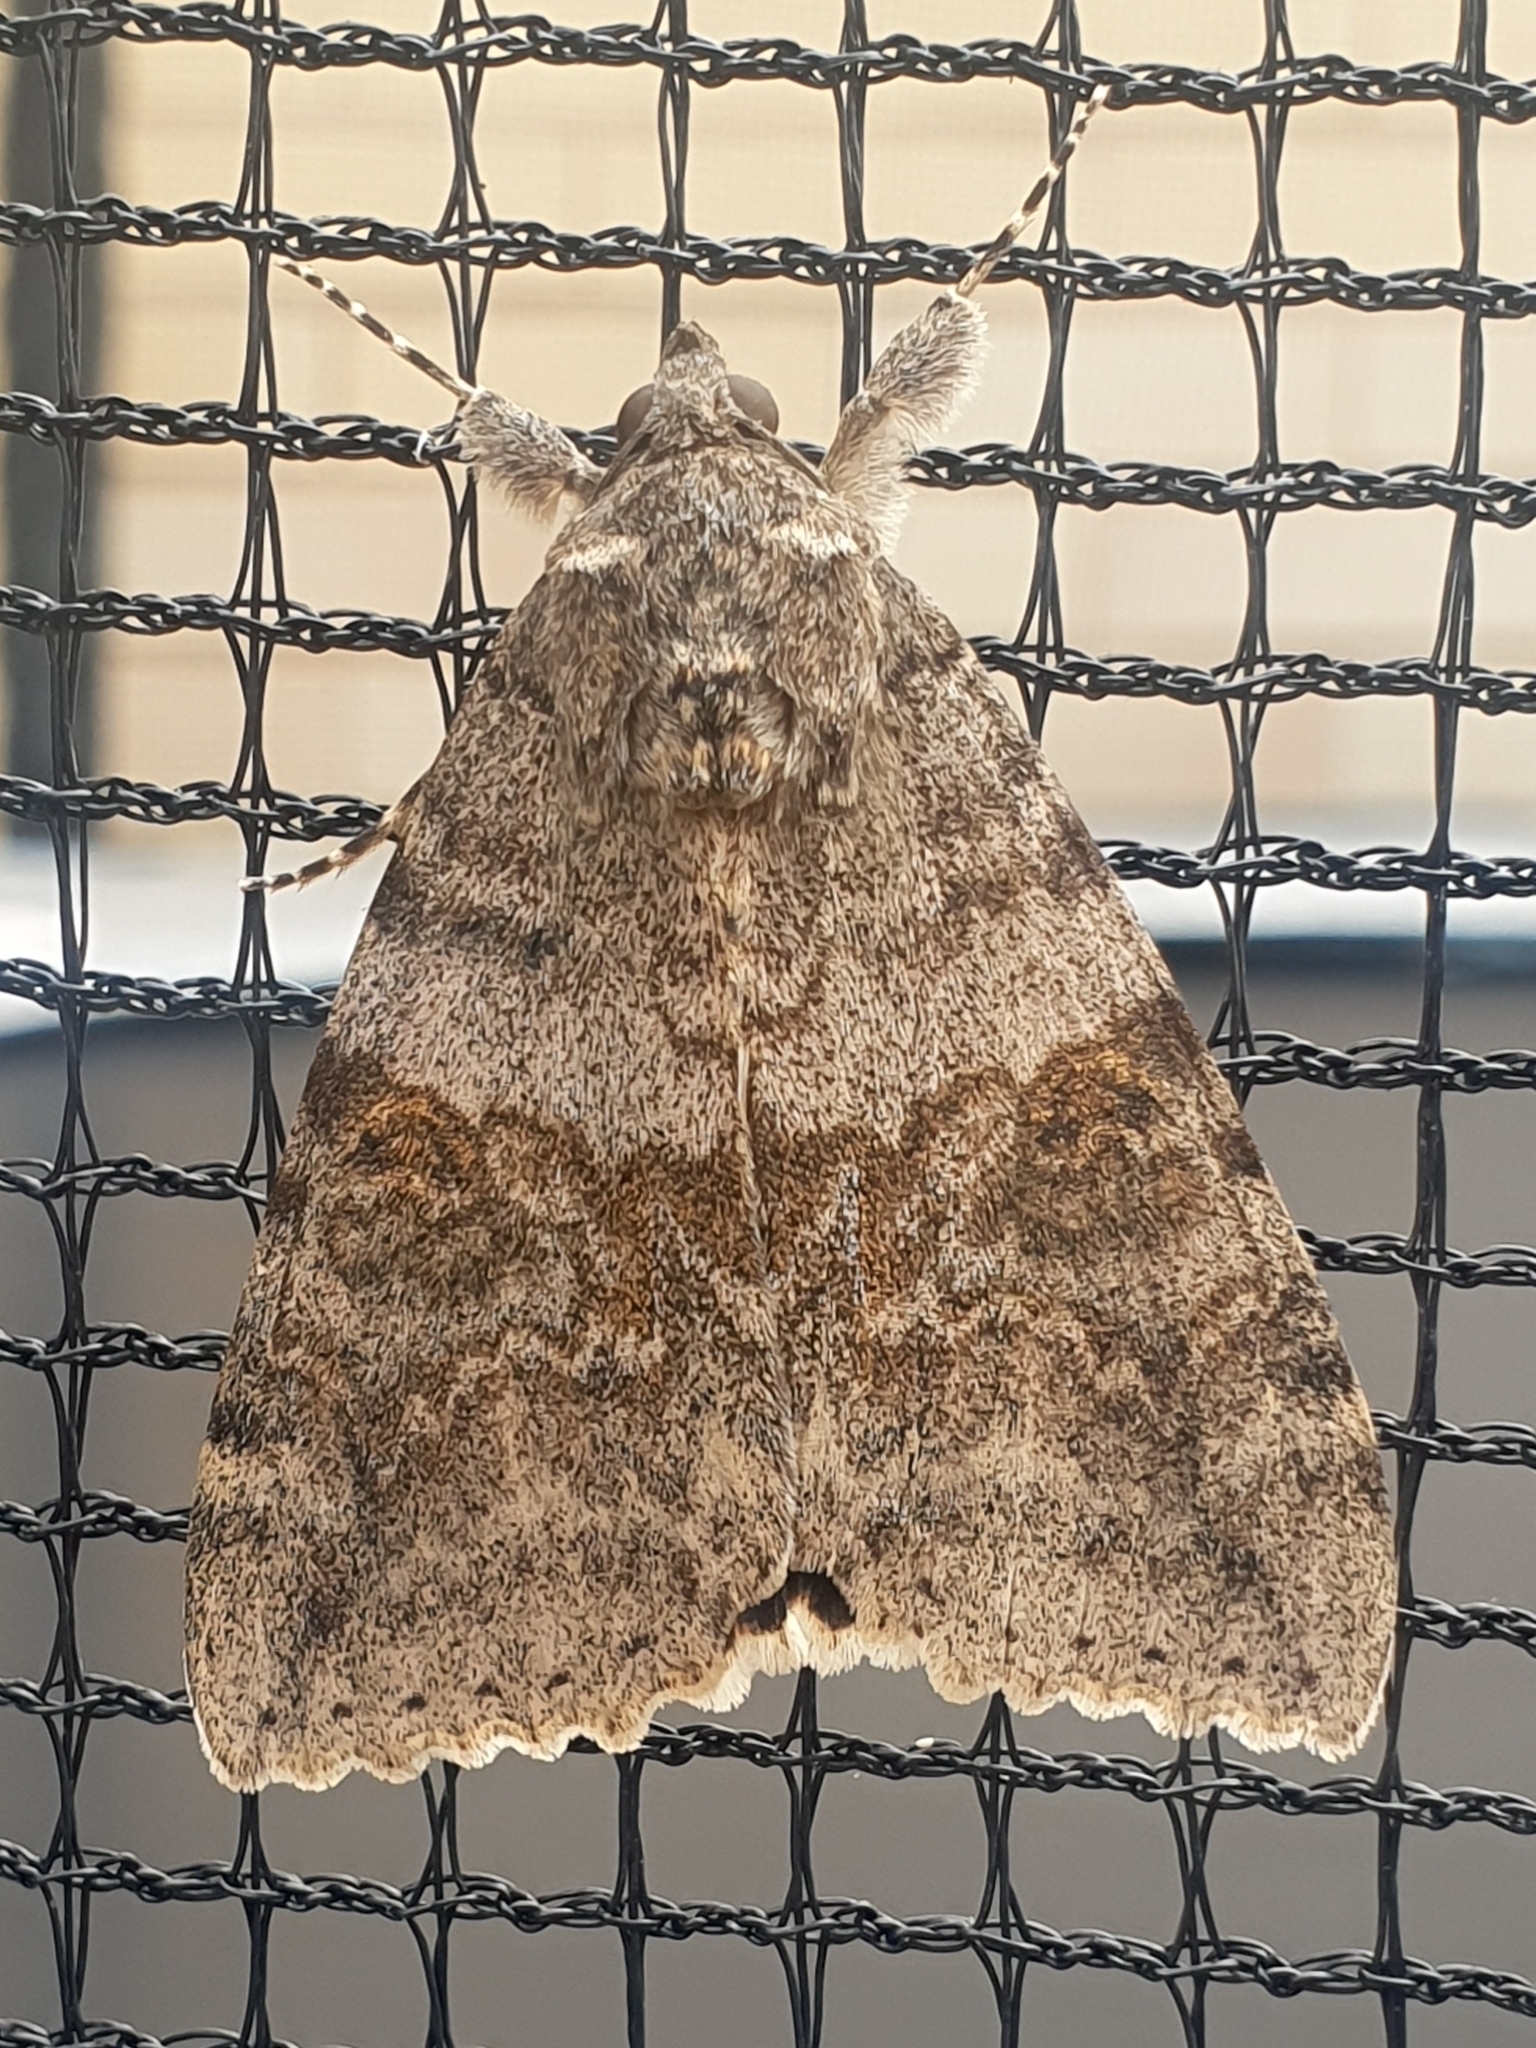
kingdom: Animalia
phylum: Arthropoda
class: Insecta
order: Lepidoptera
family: Erebidae
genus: Catocala
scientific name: Catocala nupta
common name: Red underwing
